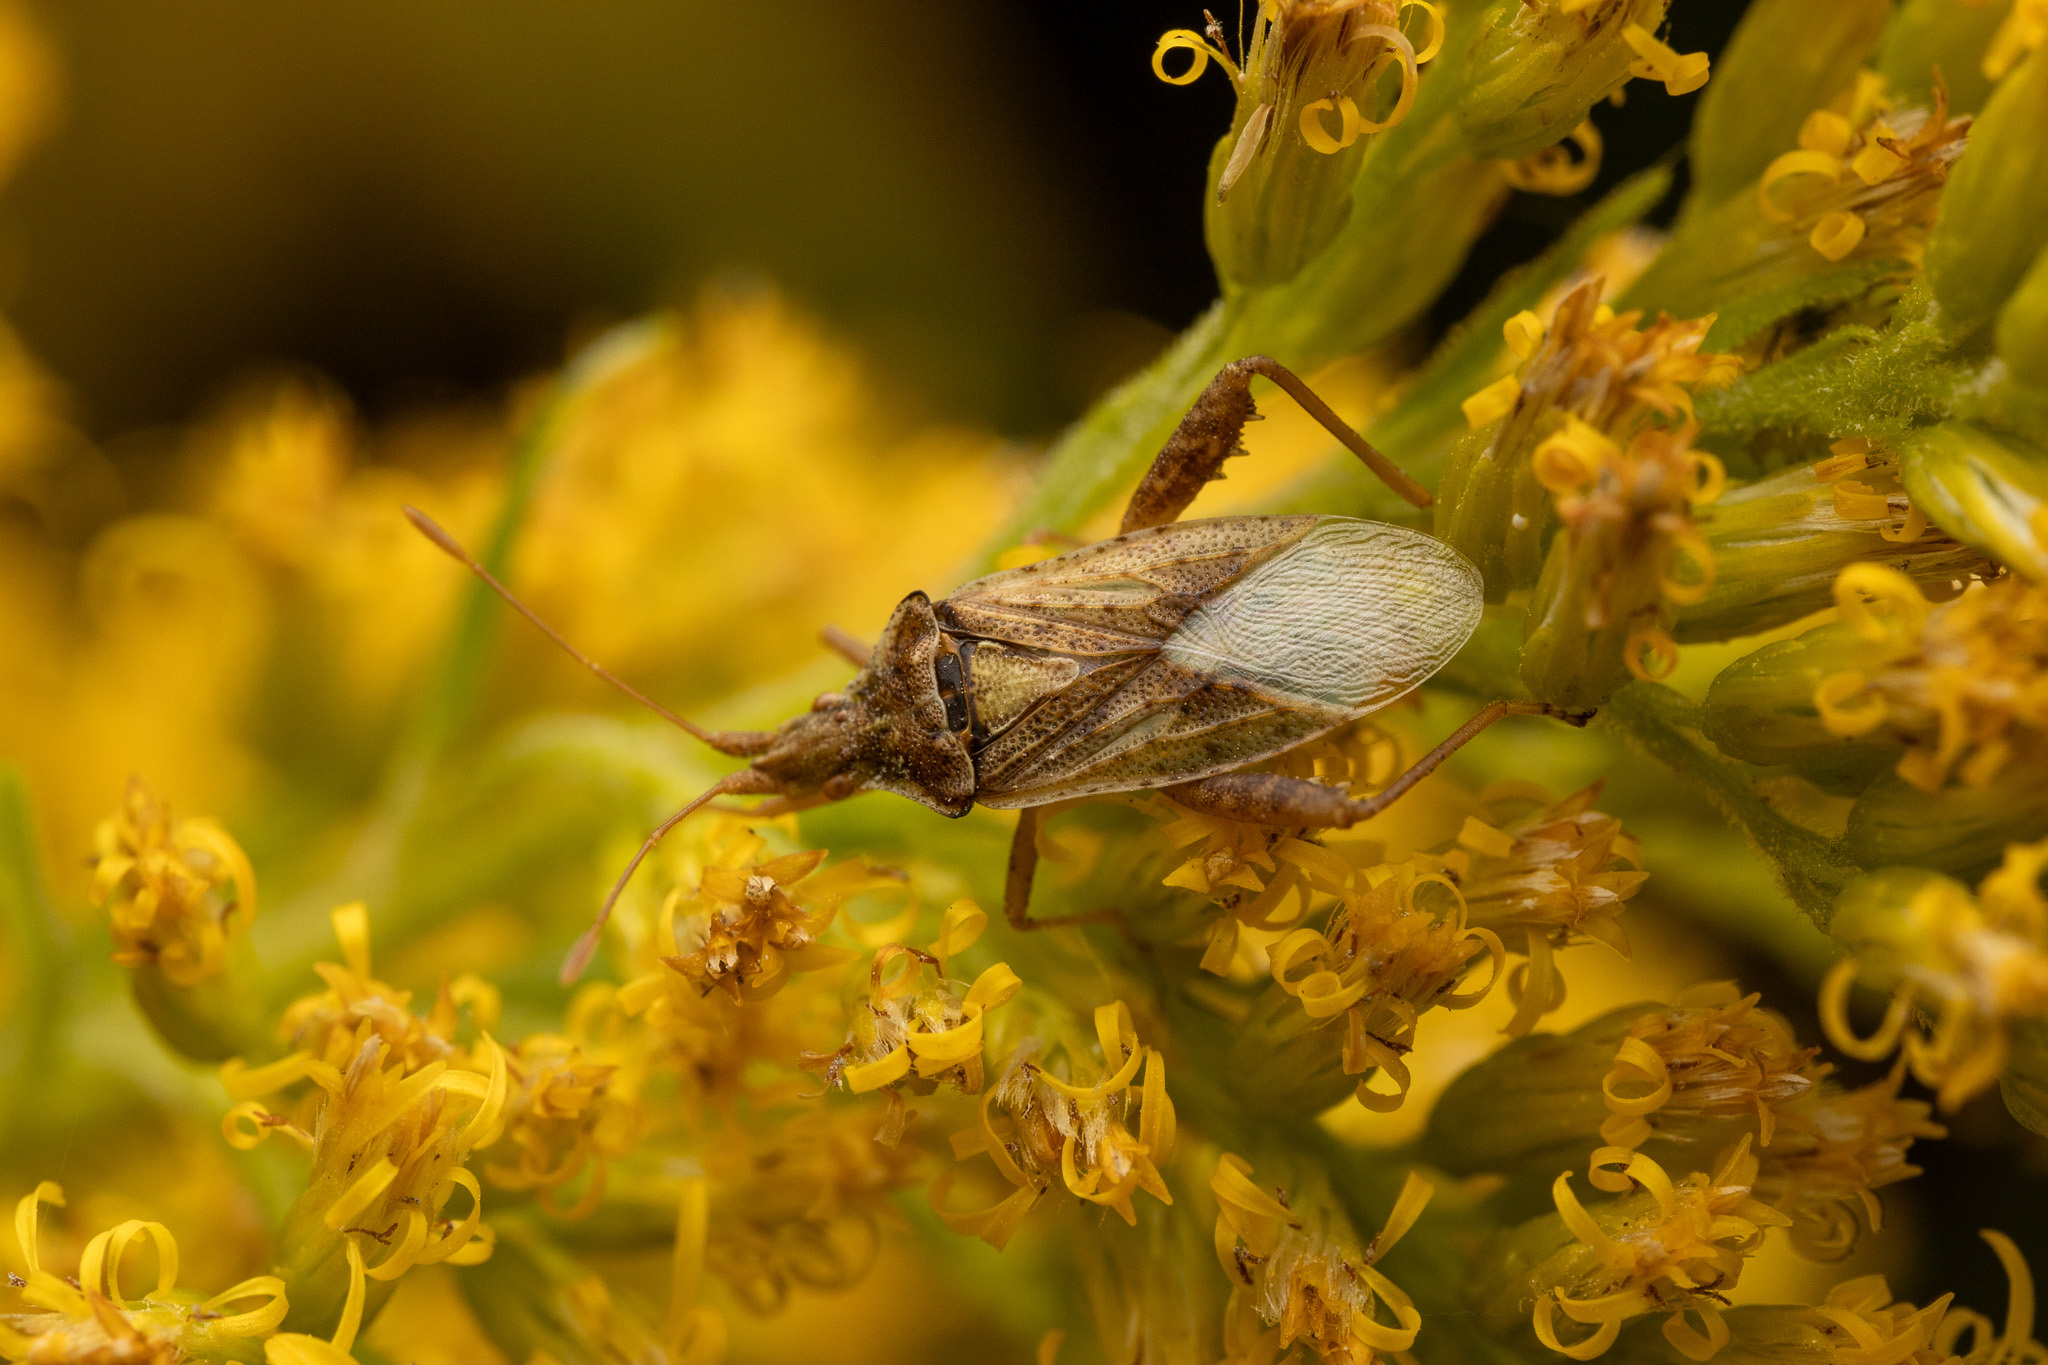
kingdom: Animalia
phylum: Arthropoda
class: Insecta
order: Hemiptera
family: Rhopalidae
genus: Harmostes
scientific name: Harmostes reflexulus
